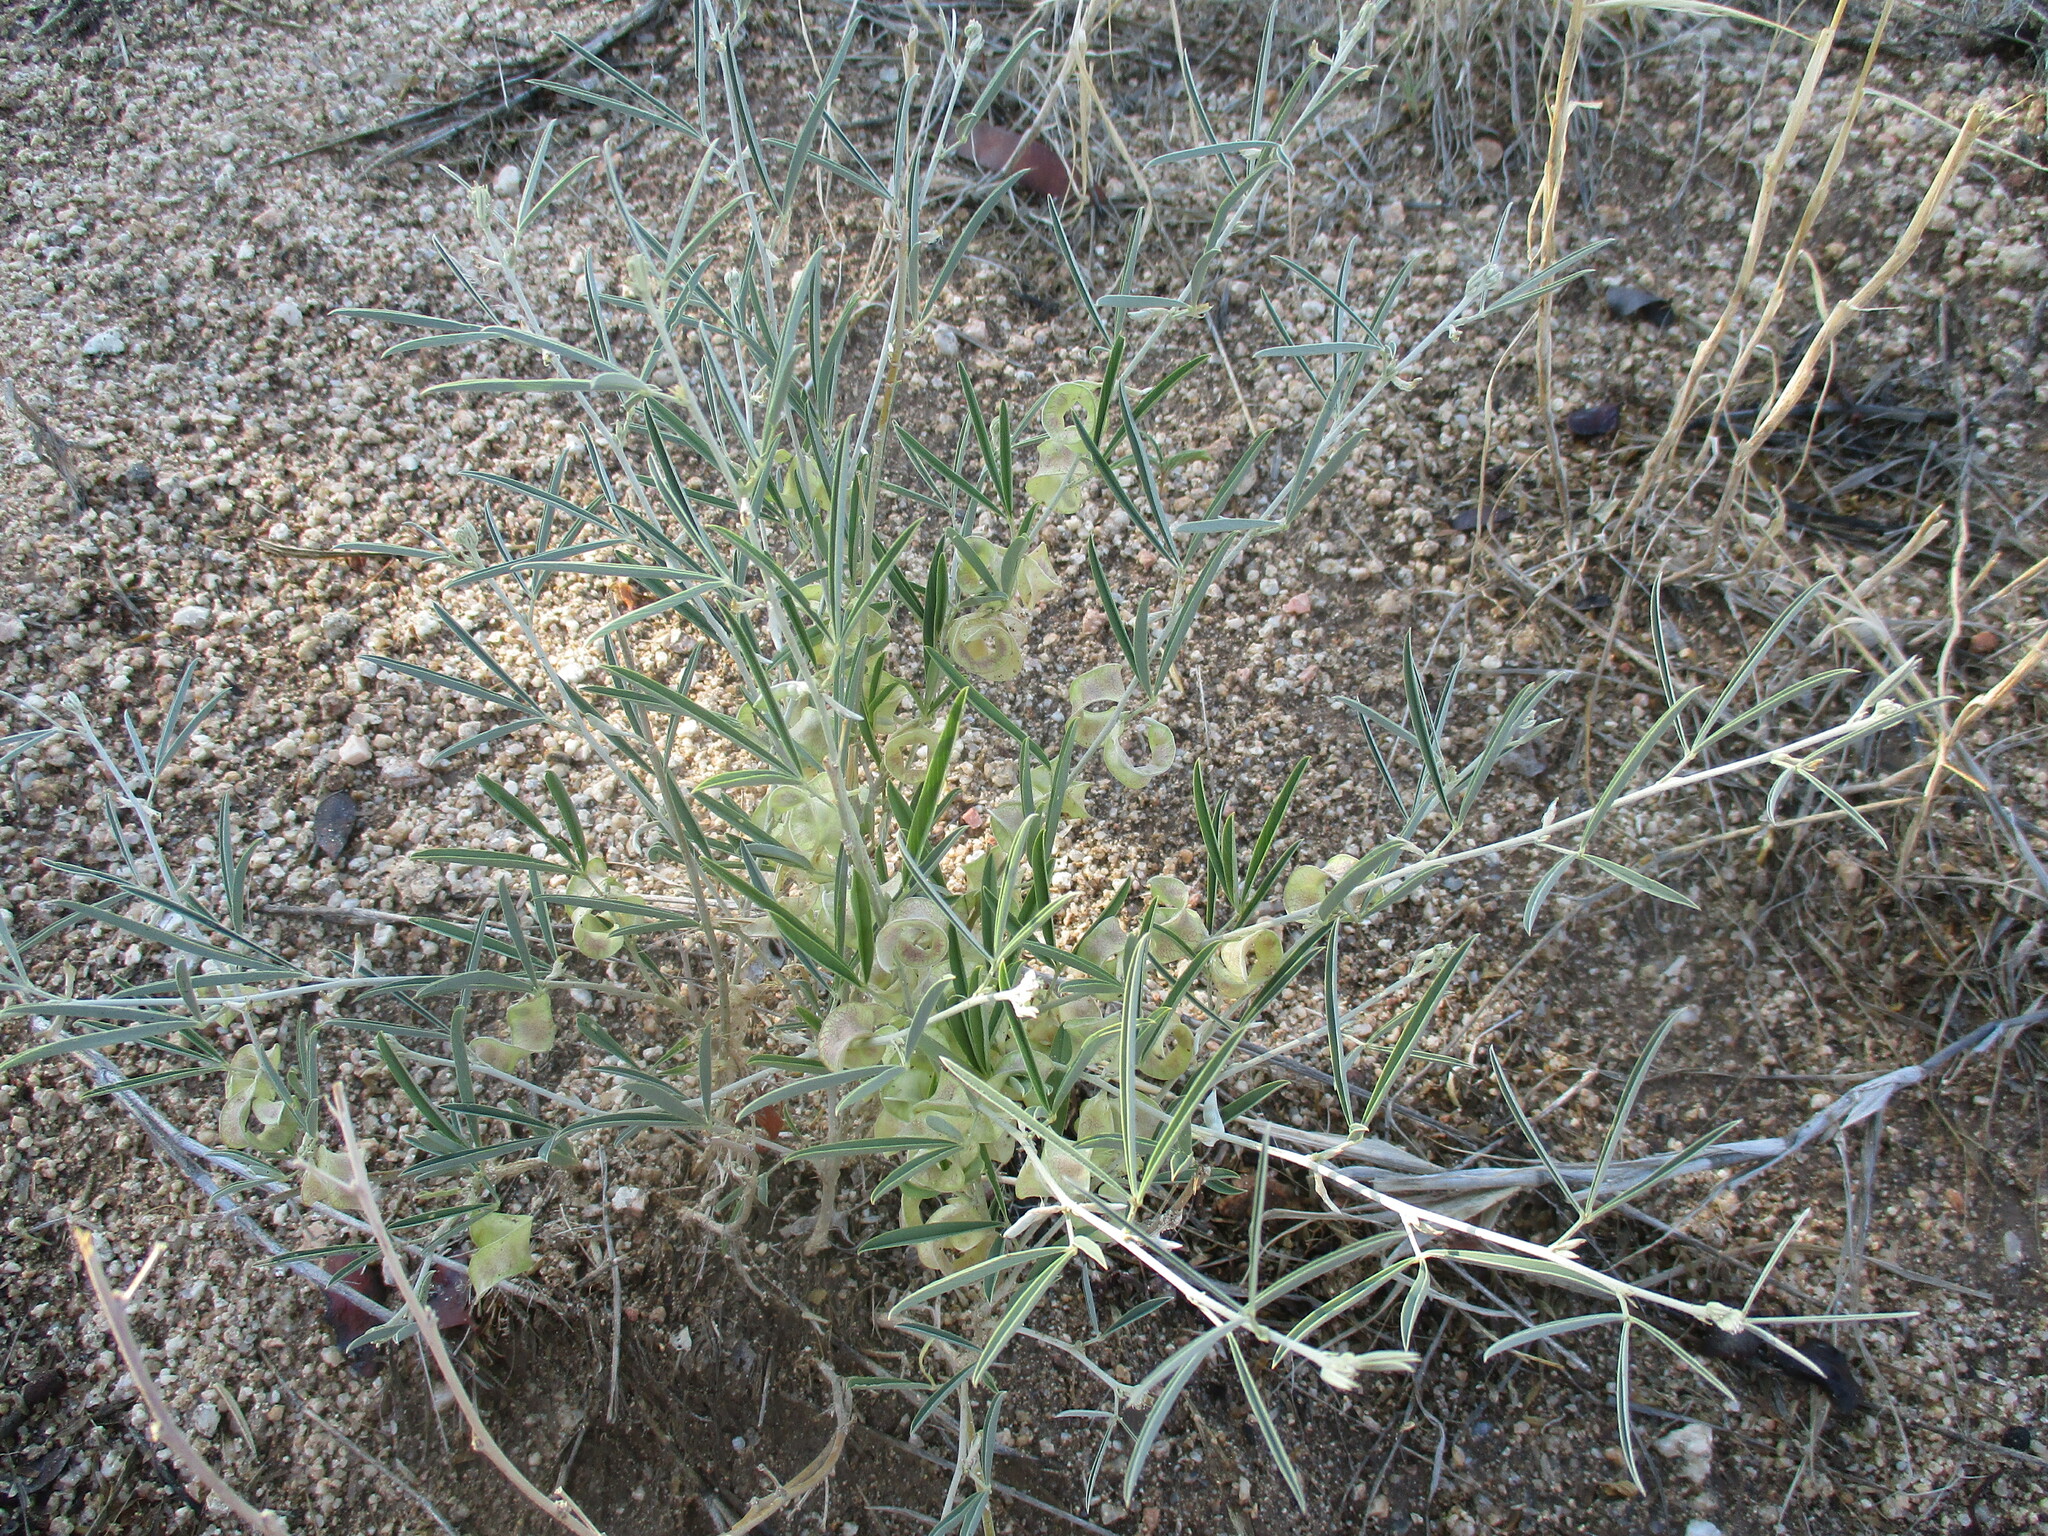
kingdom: Plantae
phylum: Tracheophyta
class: Magnoliopsida
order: Fabales
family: Fabaceae
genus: Ptycholobium
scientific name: Ptycholobium biflorum
